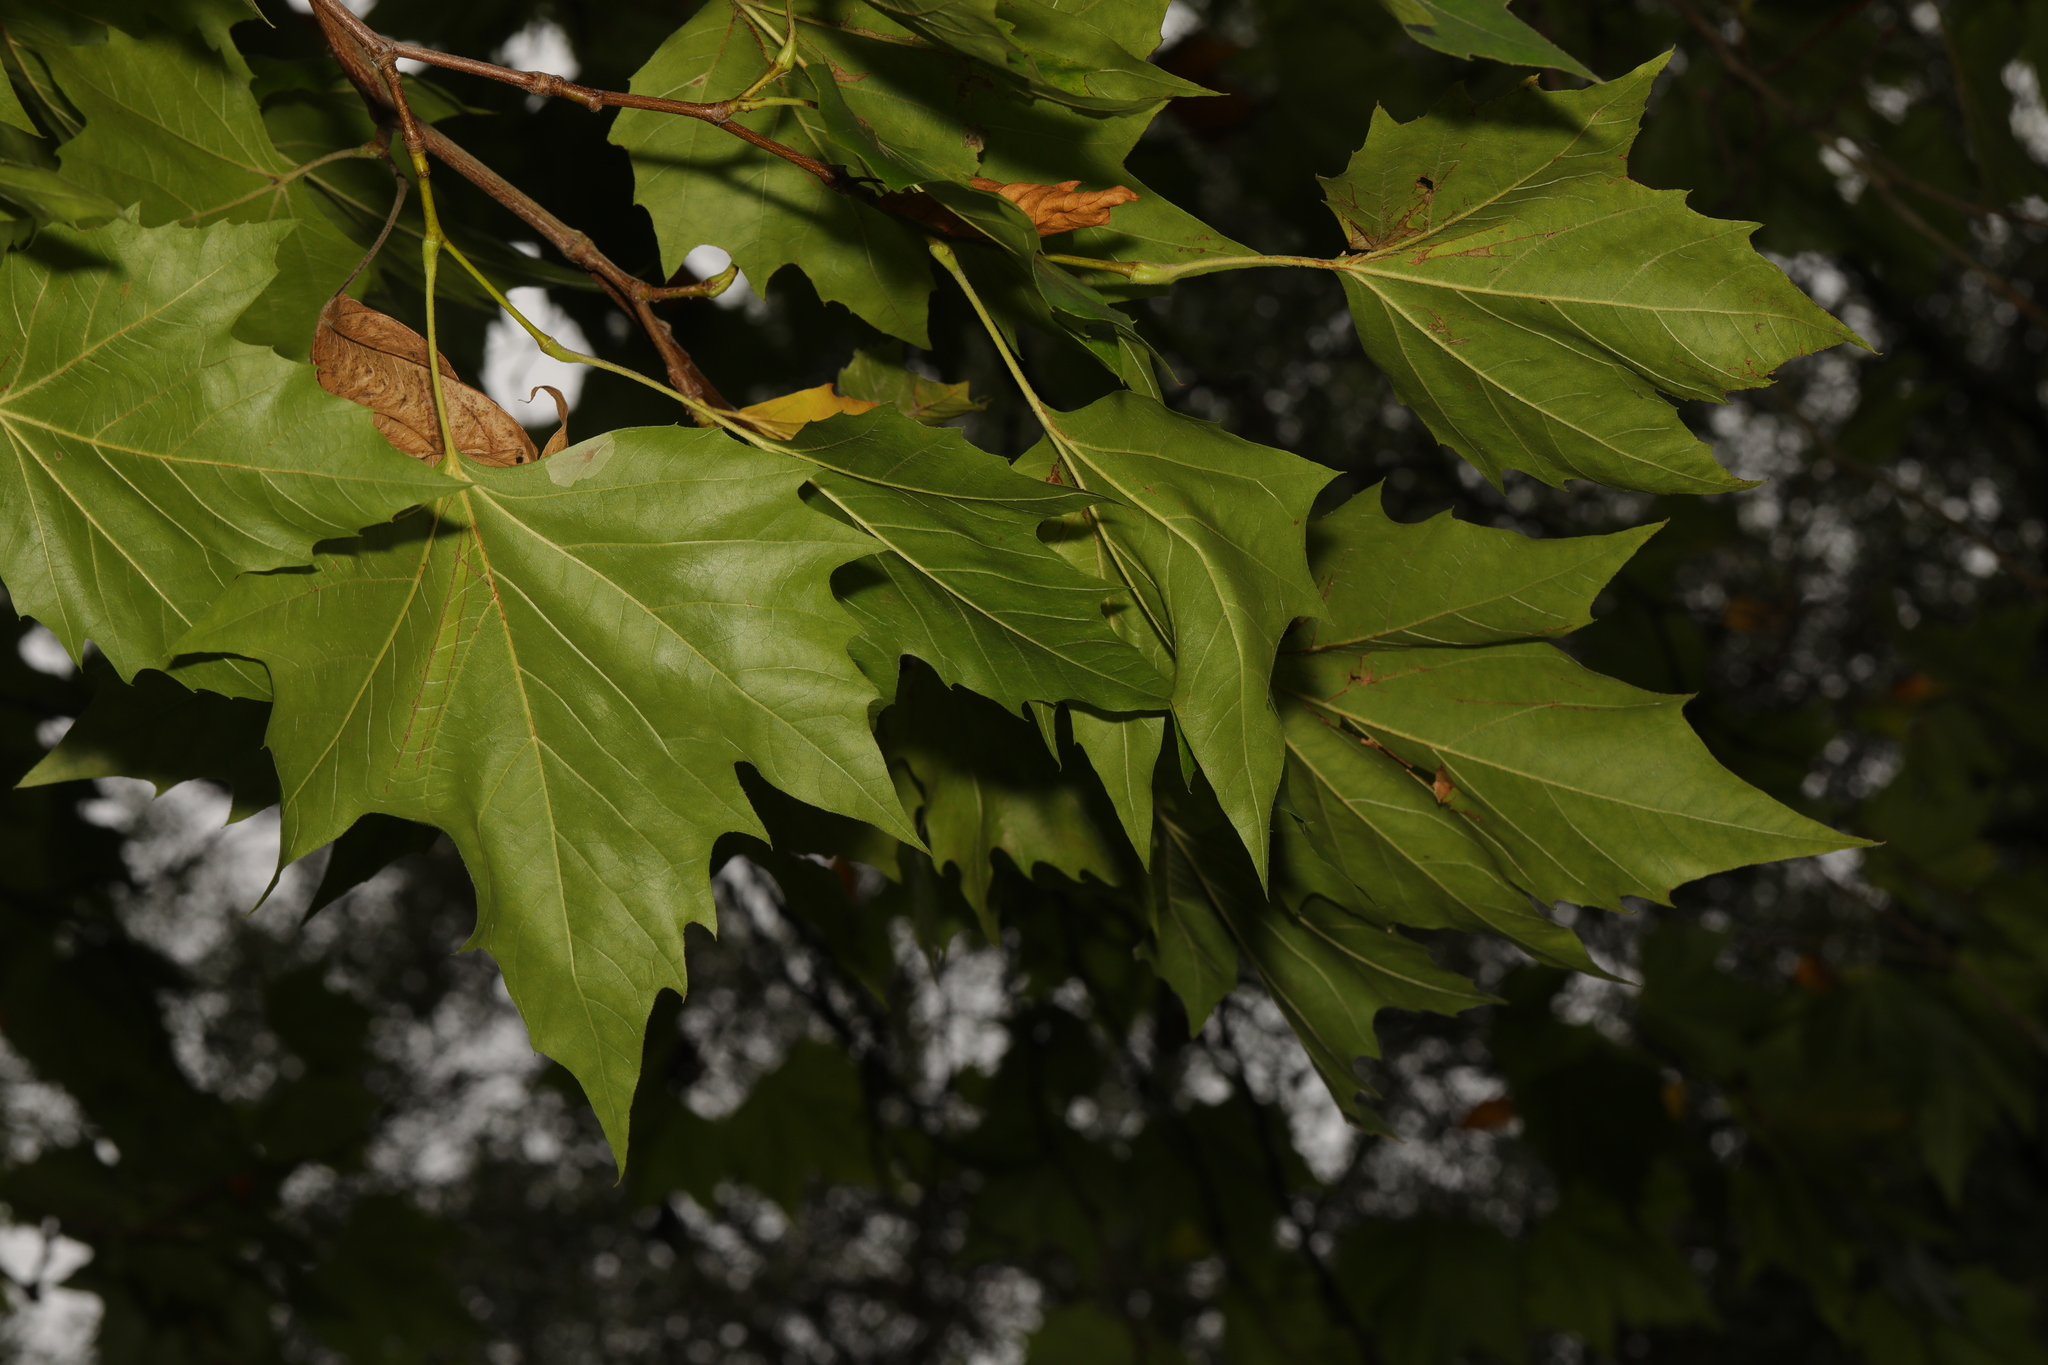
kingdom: Plantae
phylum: Tracheophyta
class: Magnoliopsida
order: Proteales
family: Platanaceae
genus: Platanus
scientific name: Platanus hispanica
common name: London plane
